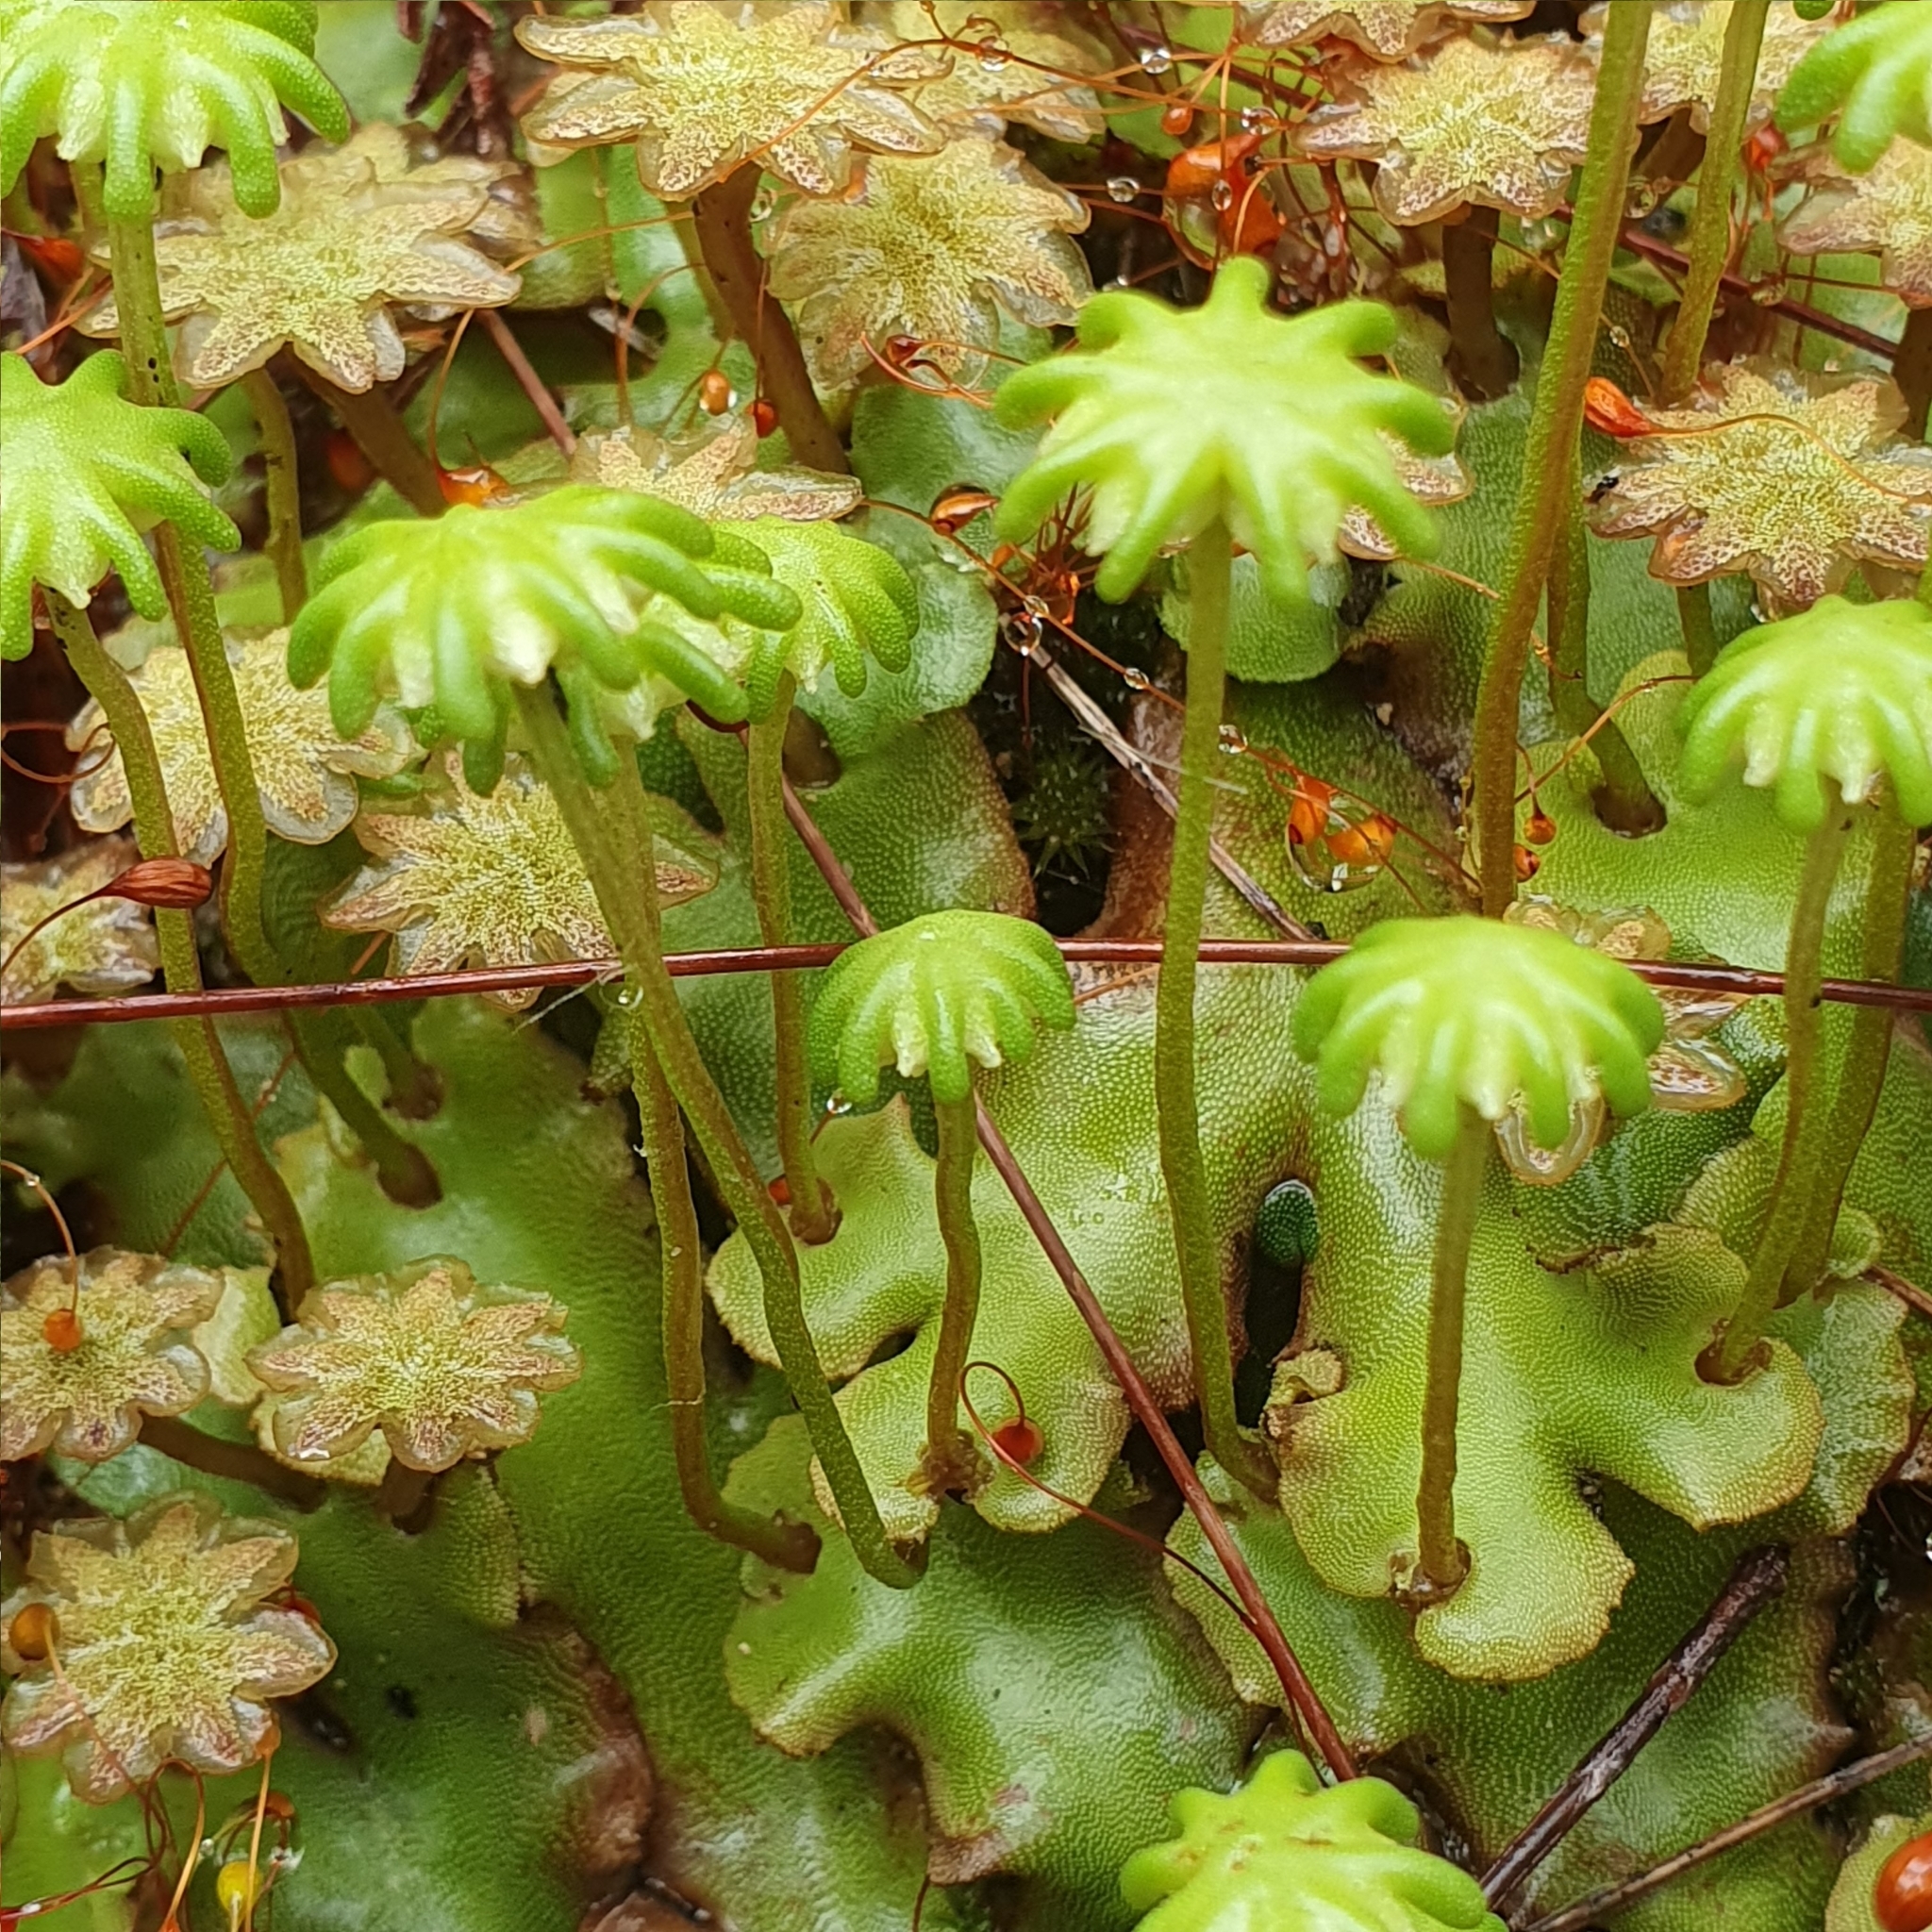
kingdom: Plantae
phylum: Marchantiophyta
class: Marchantiopsida
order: Marchantiales
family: Marchantiaceae
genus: Marchantia
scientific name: Marchantia berteroana
